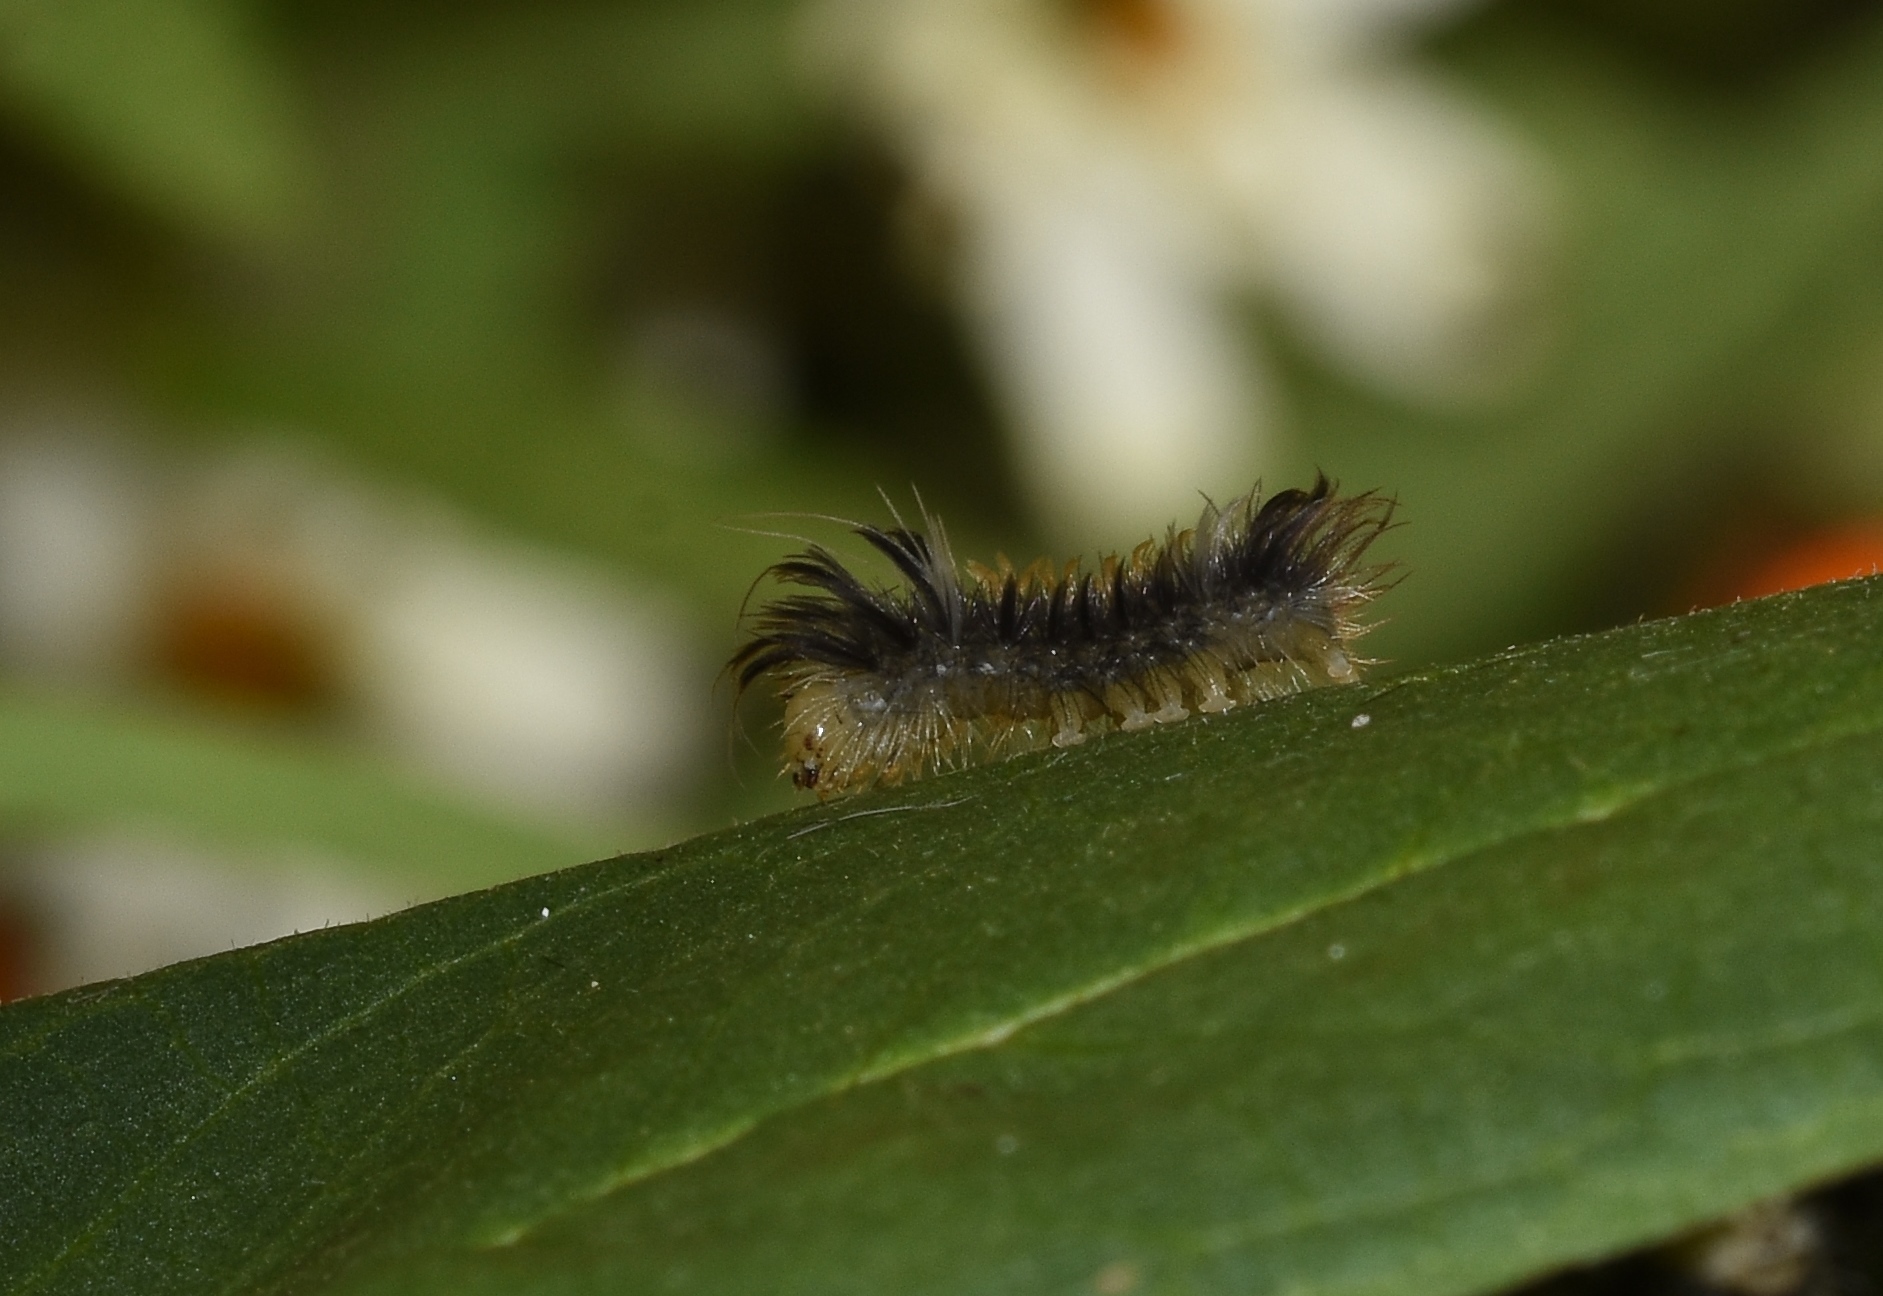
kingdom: Animalia
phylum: Arthropoda
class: Insecta
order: Lepidoptera
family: Erebidae
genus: Euchaetes
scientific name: Euchaetes egle
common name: Milkweed tussock moth
